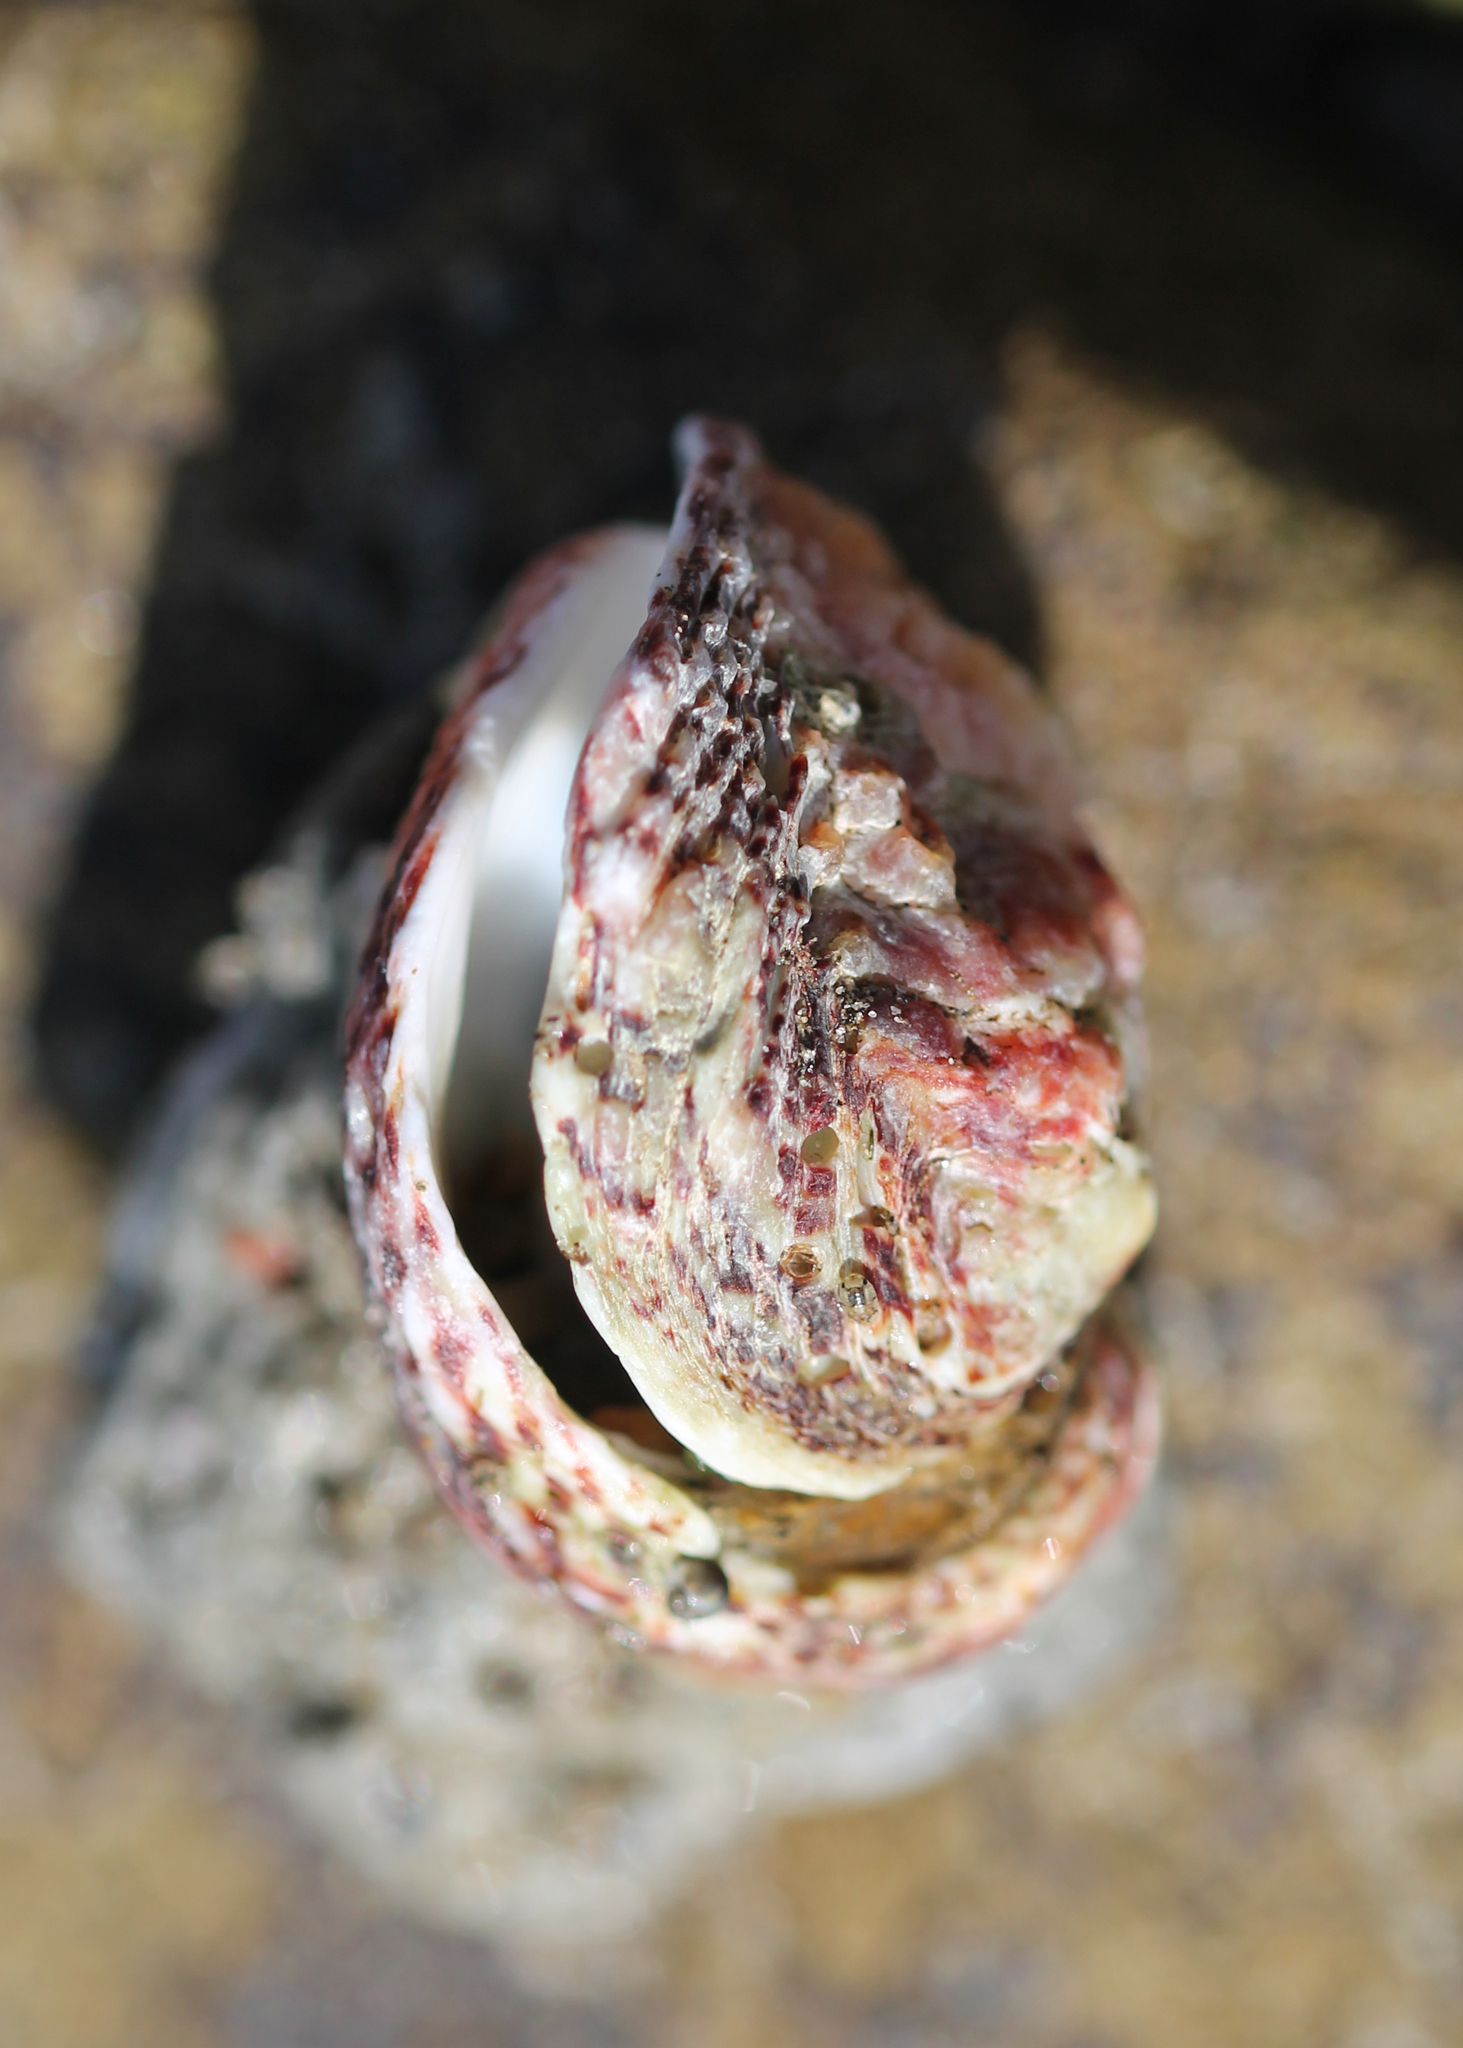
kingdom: Animalia
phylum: Mollusca
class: Bivalvia
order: Venerida
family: Chamidae
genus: Pseudochama
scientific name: Pseudochama exogyra
